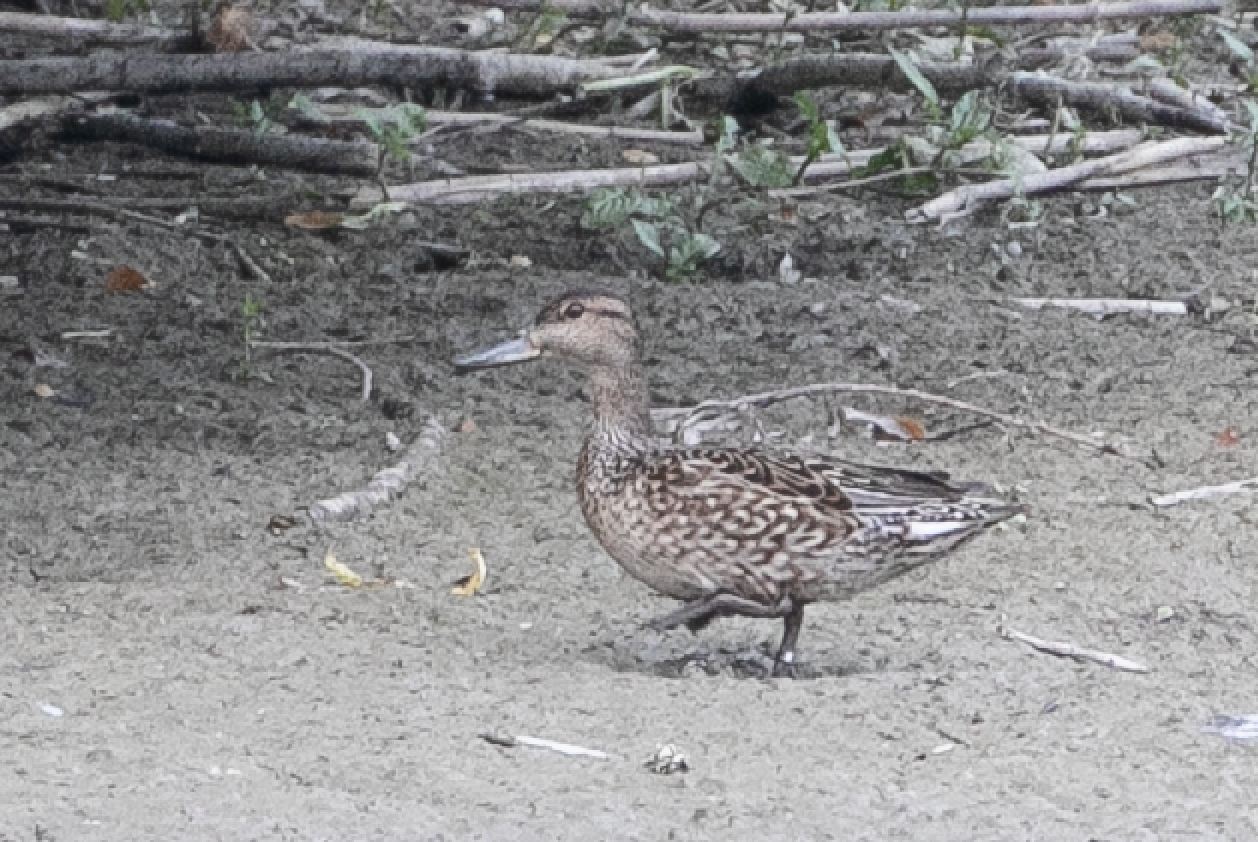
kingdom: Animalia
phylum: Chordata
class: Aves
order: Anseriformes
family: Anatidae
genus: Anas
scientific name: Anas crecca
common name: Eurasian teal
